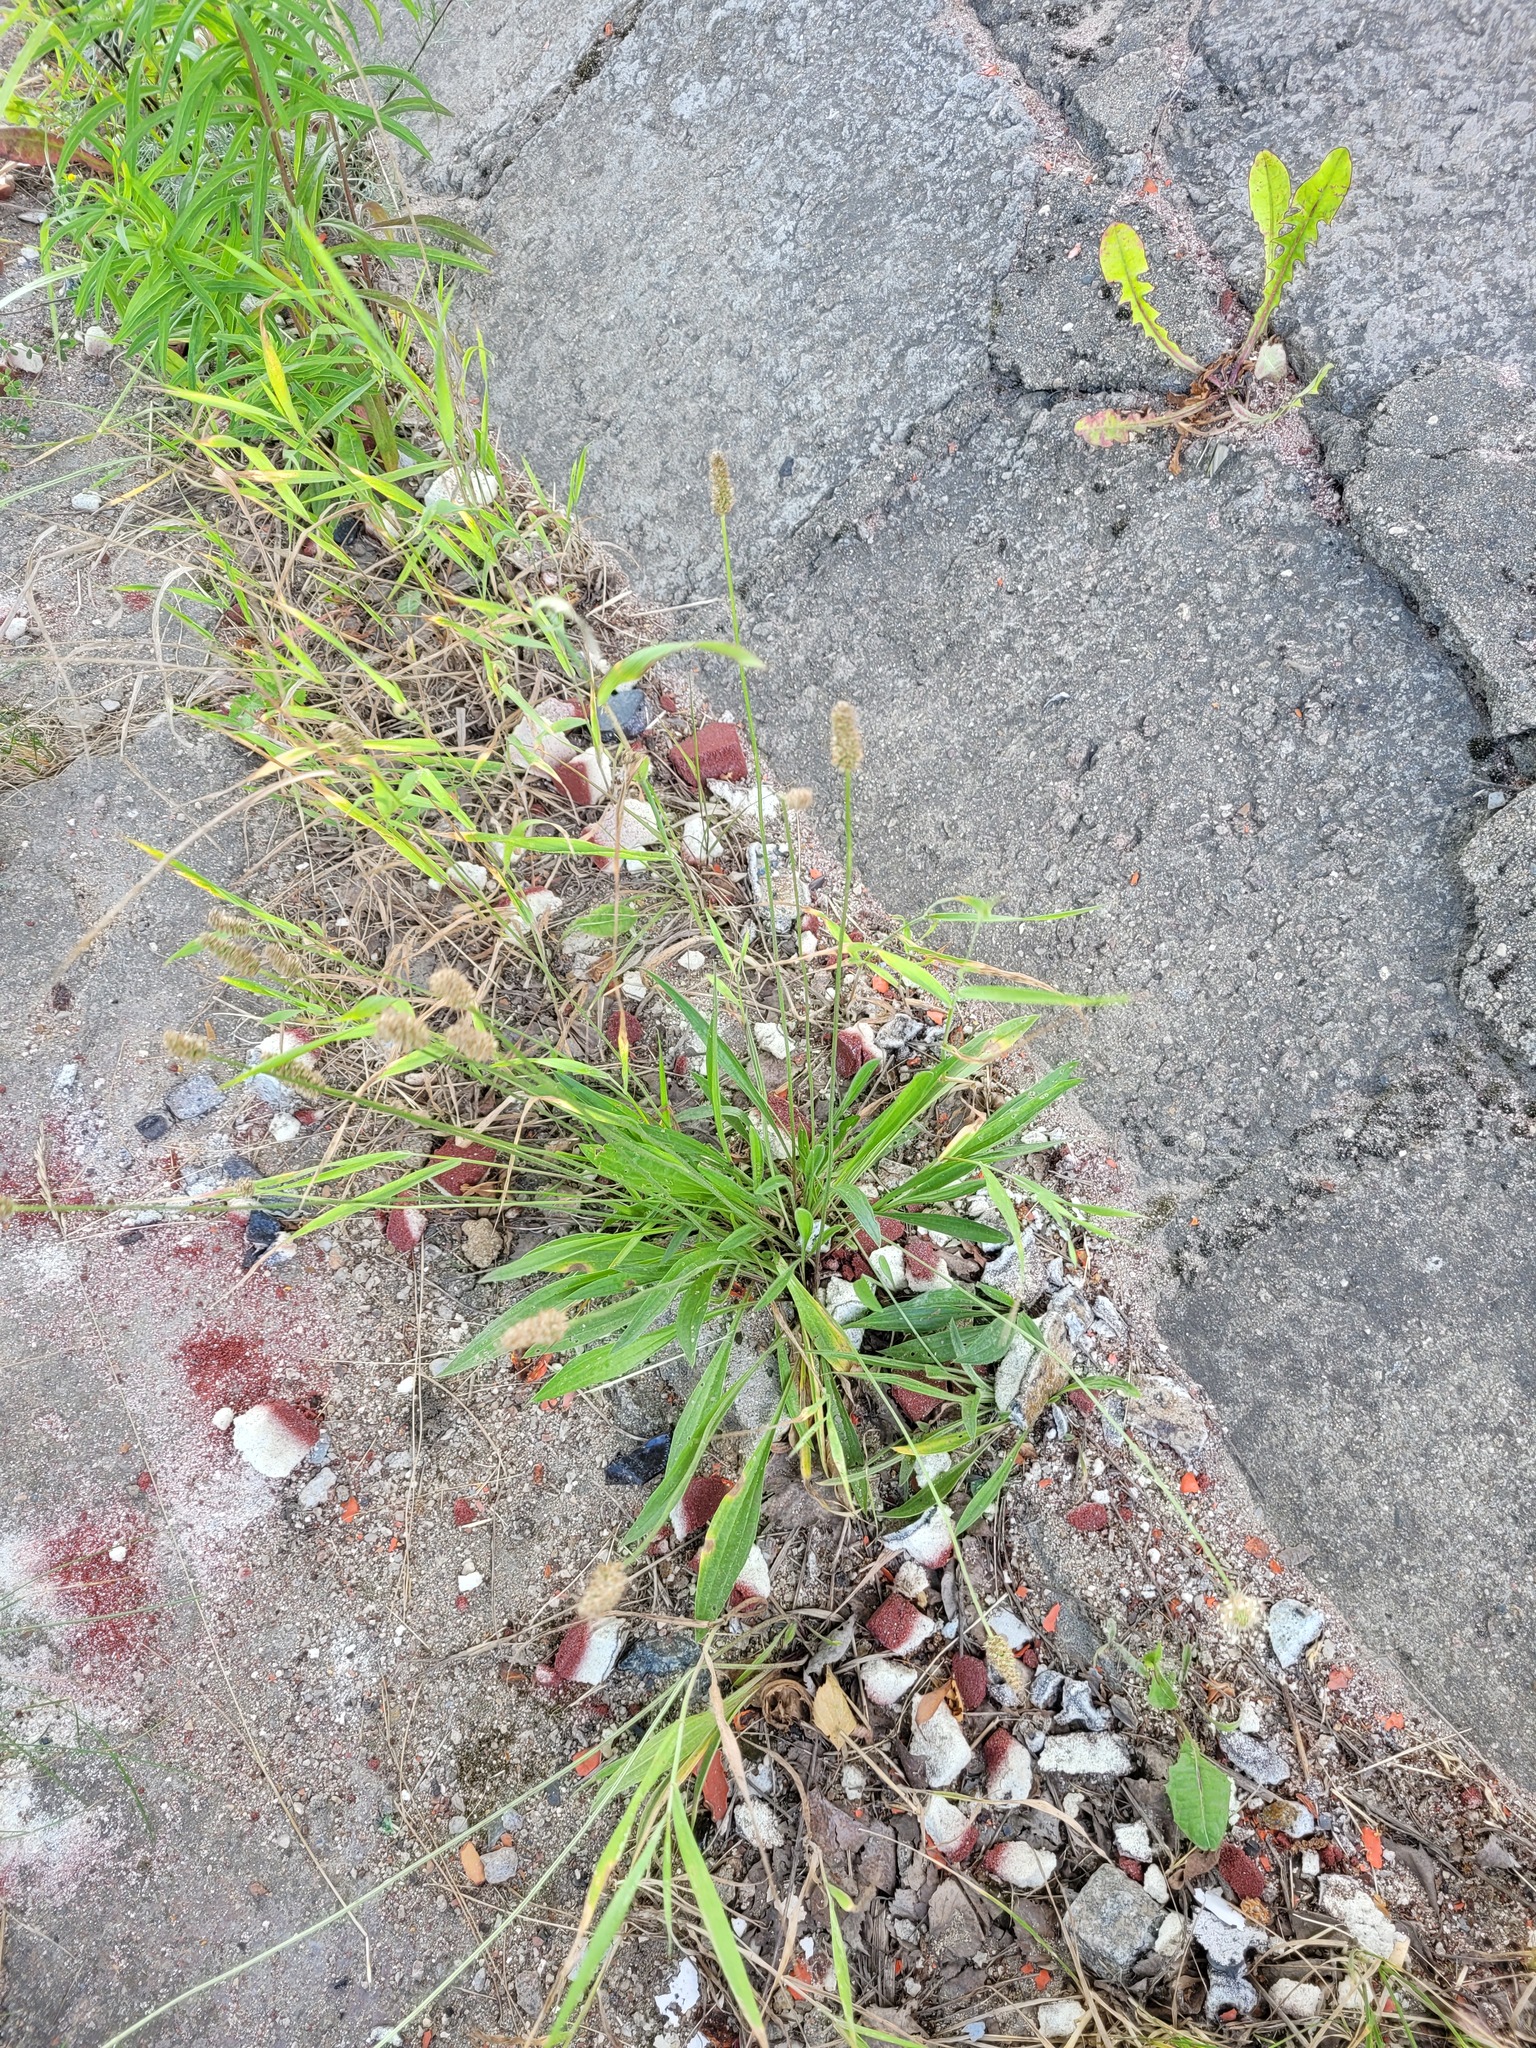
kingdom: Plantae
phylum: Tracheophyta
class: Magnoliopsida
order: Lamiales
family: Plantaginaceae
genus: Plantago
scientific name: Plantago lanceolata
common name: Ribwort plantain
